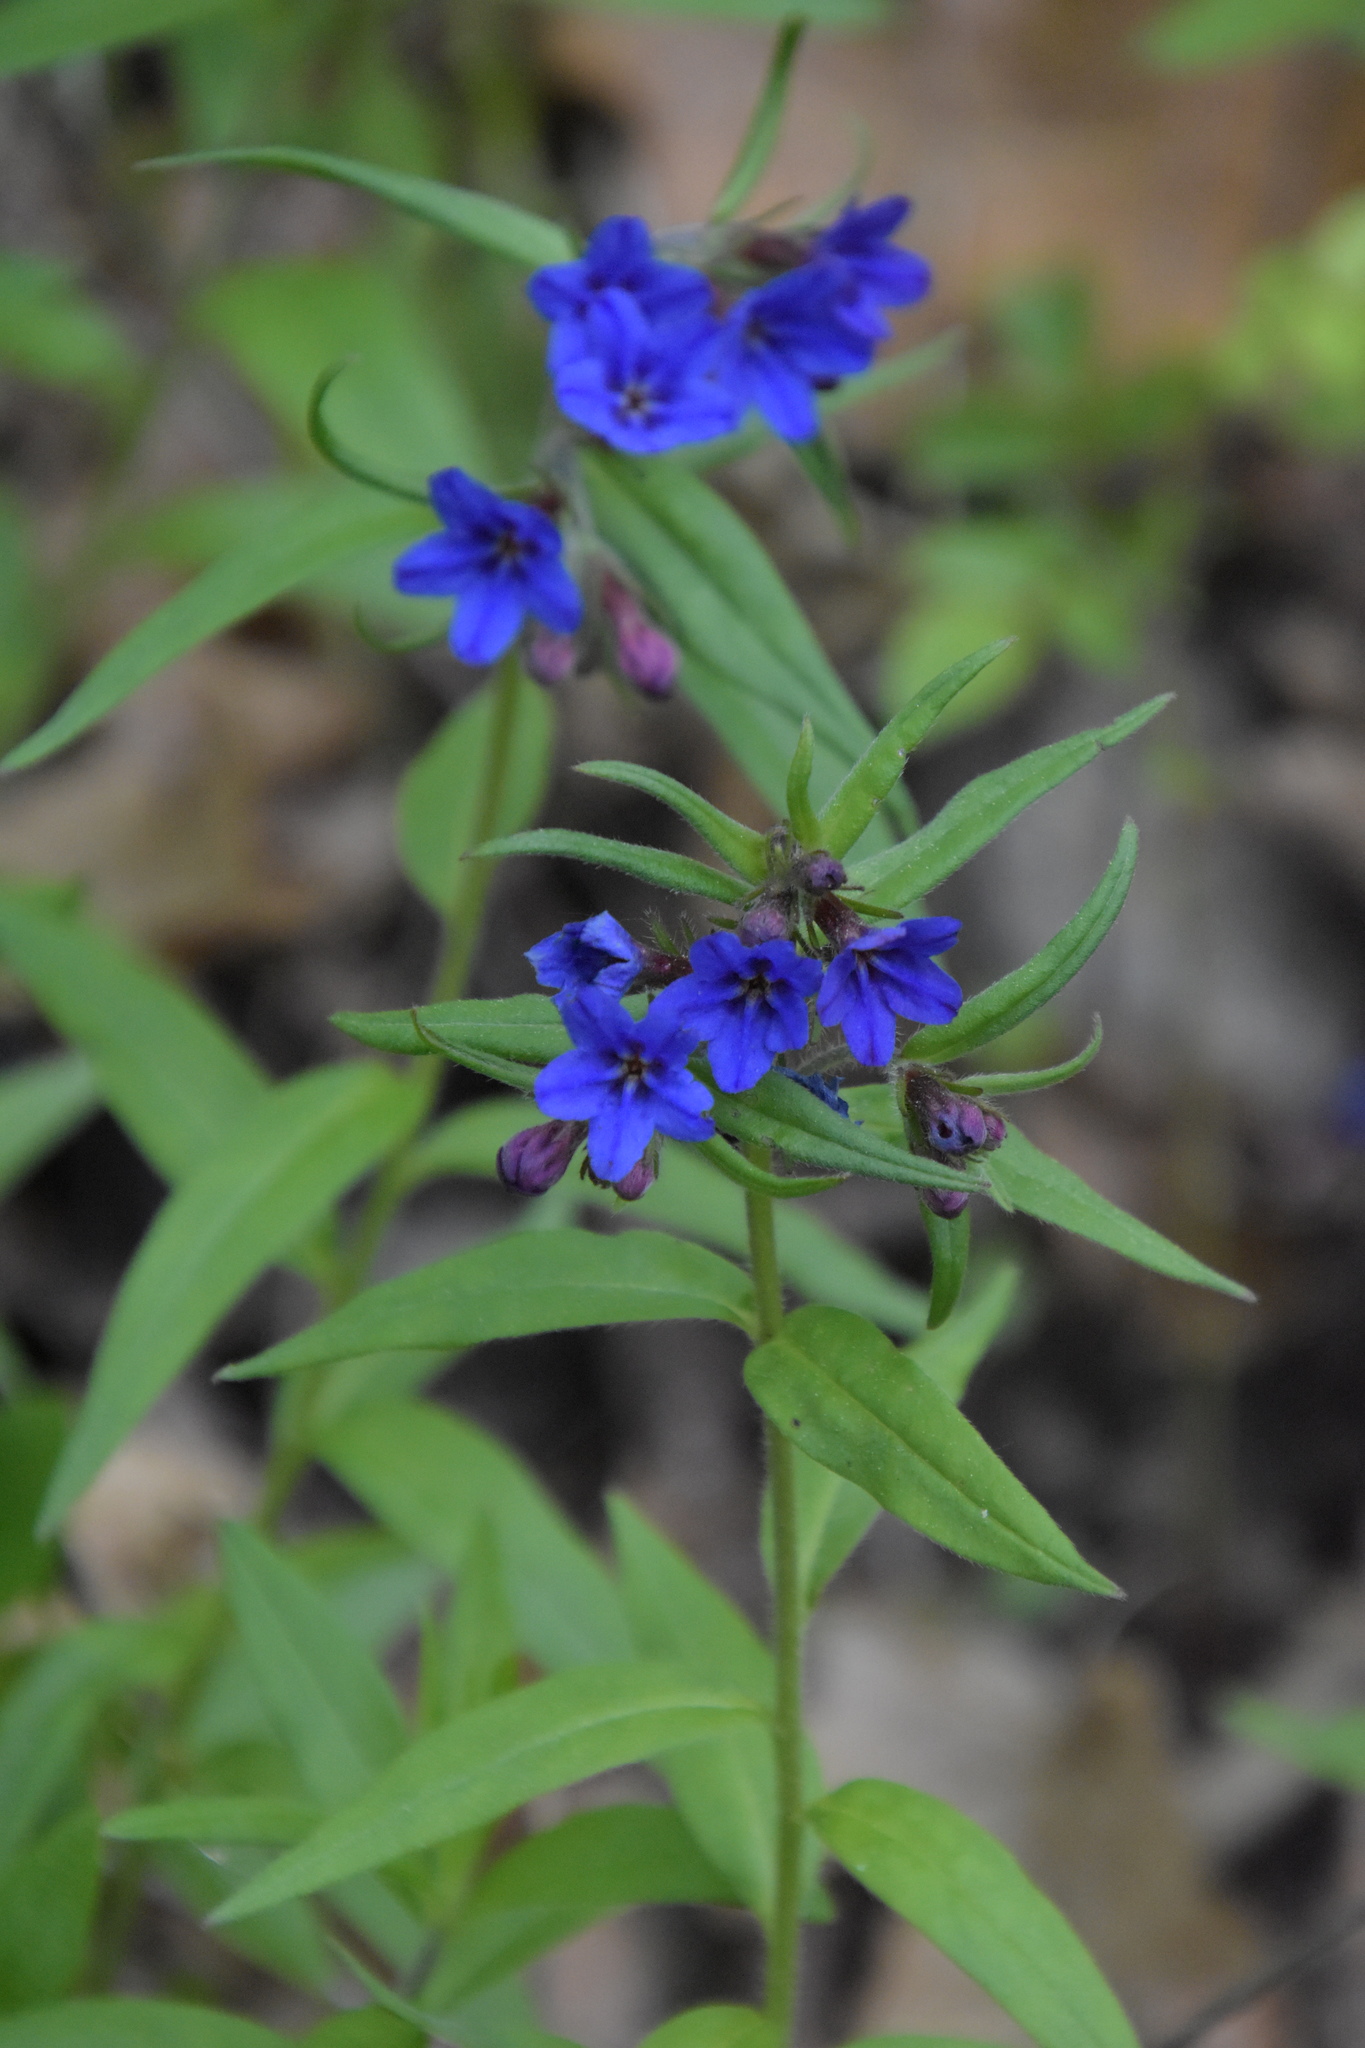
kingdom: Plantae
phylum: Tracheophyta
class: Magnoliopsida
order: Boraginales
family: Boraginaceae
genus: Aegonychon
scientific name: Aegonychon purpurocaeruleum
